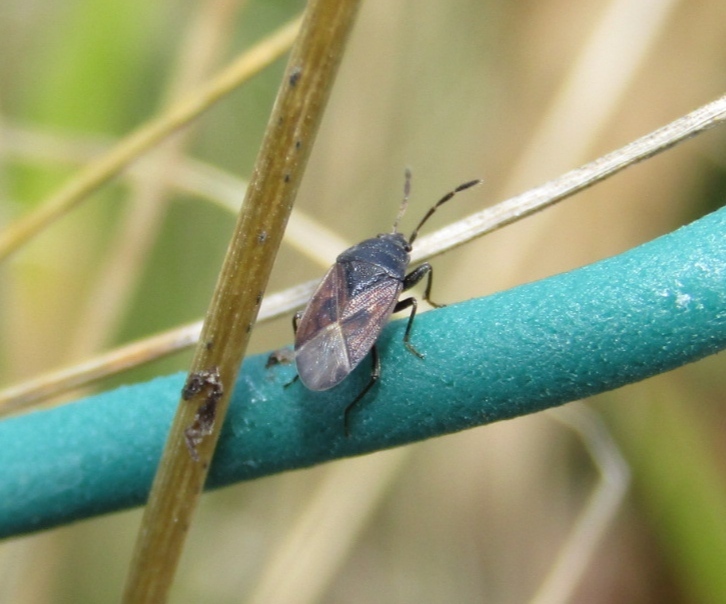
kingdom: Animalia
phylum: Arthropoda
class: Insecta
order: Hemiptera
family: Rhyparochromidae
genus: Drymus
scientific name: Drymus sylvaticus
